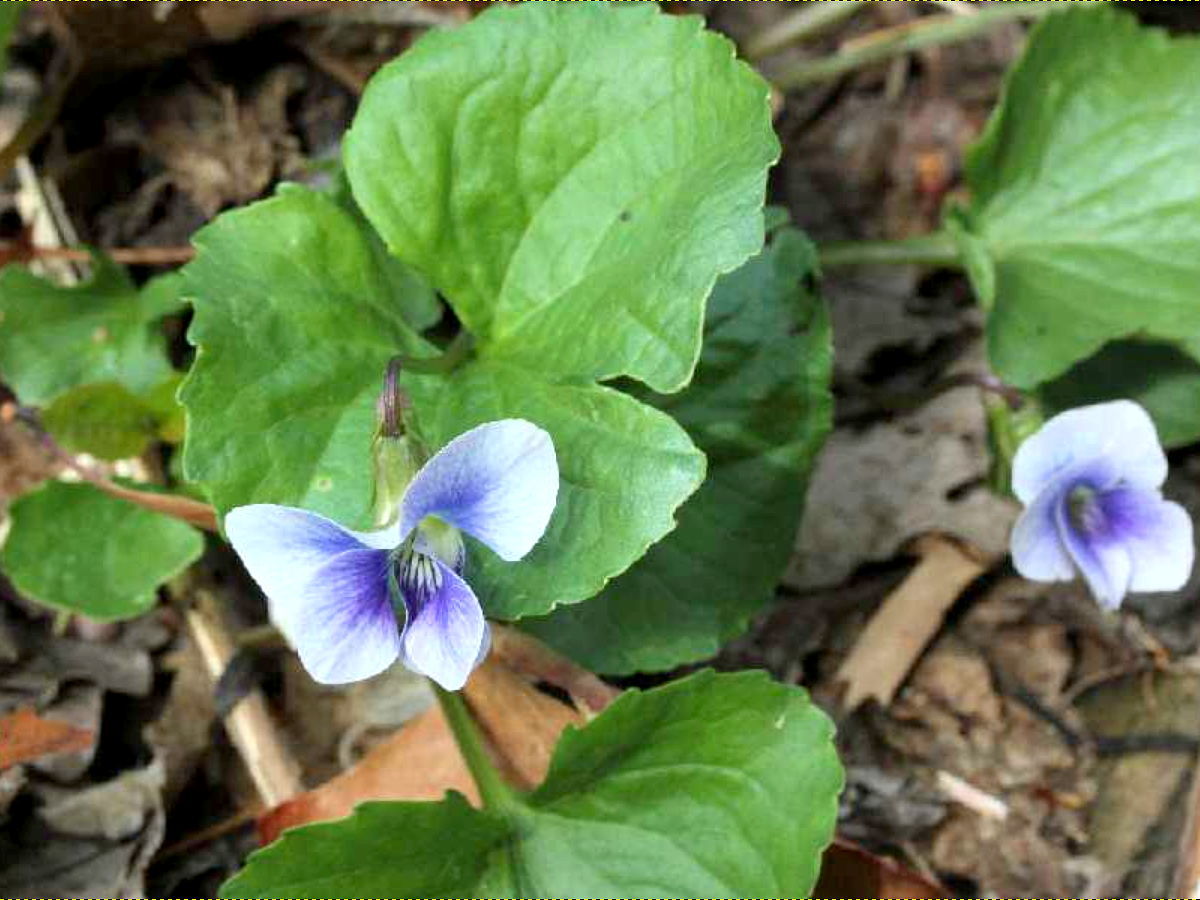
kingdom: Plantae
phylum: Tracheophyta
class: Magnoliopsida
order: Malpighiales
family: Violaceae
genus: Viola
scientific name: Viola sororia
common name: Dooryard violet
